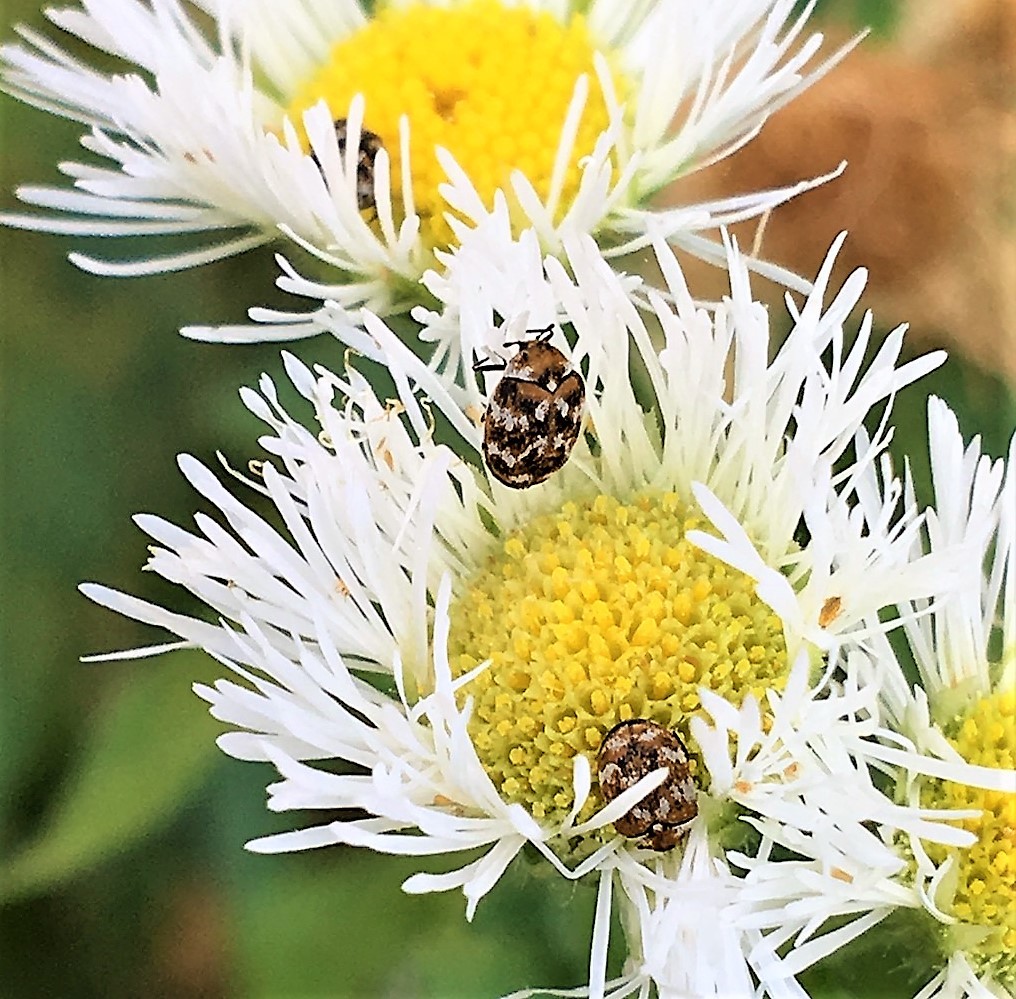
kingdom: Animalia
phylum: Arthropoda
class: Insecta
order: Coleoptera
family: Dermestidae
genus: Anthrenus
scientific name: Anthrenus verbasci
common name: Varied carpet beetle
